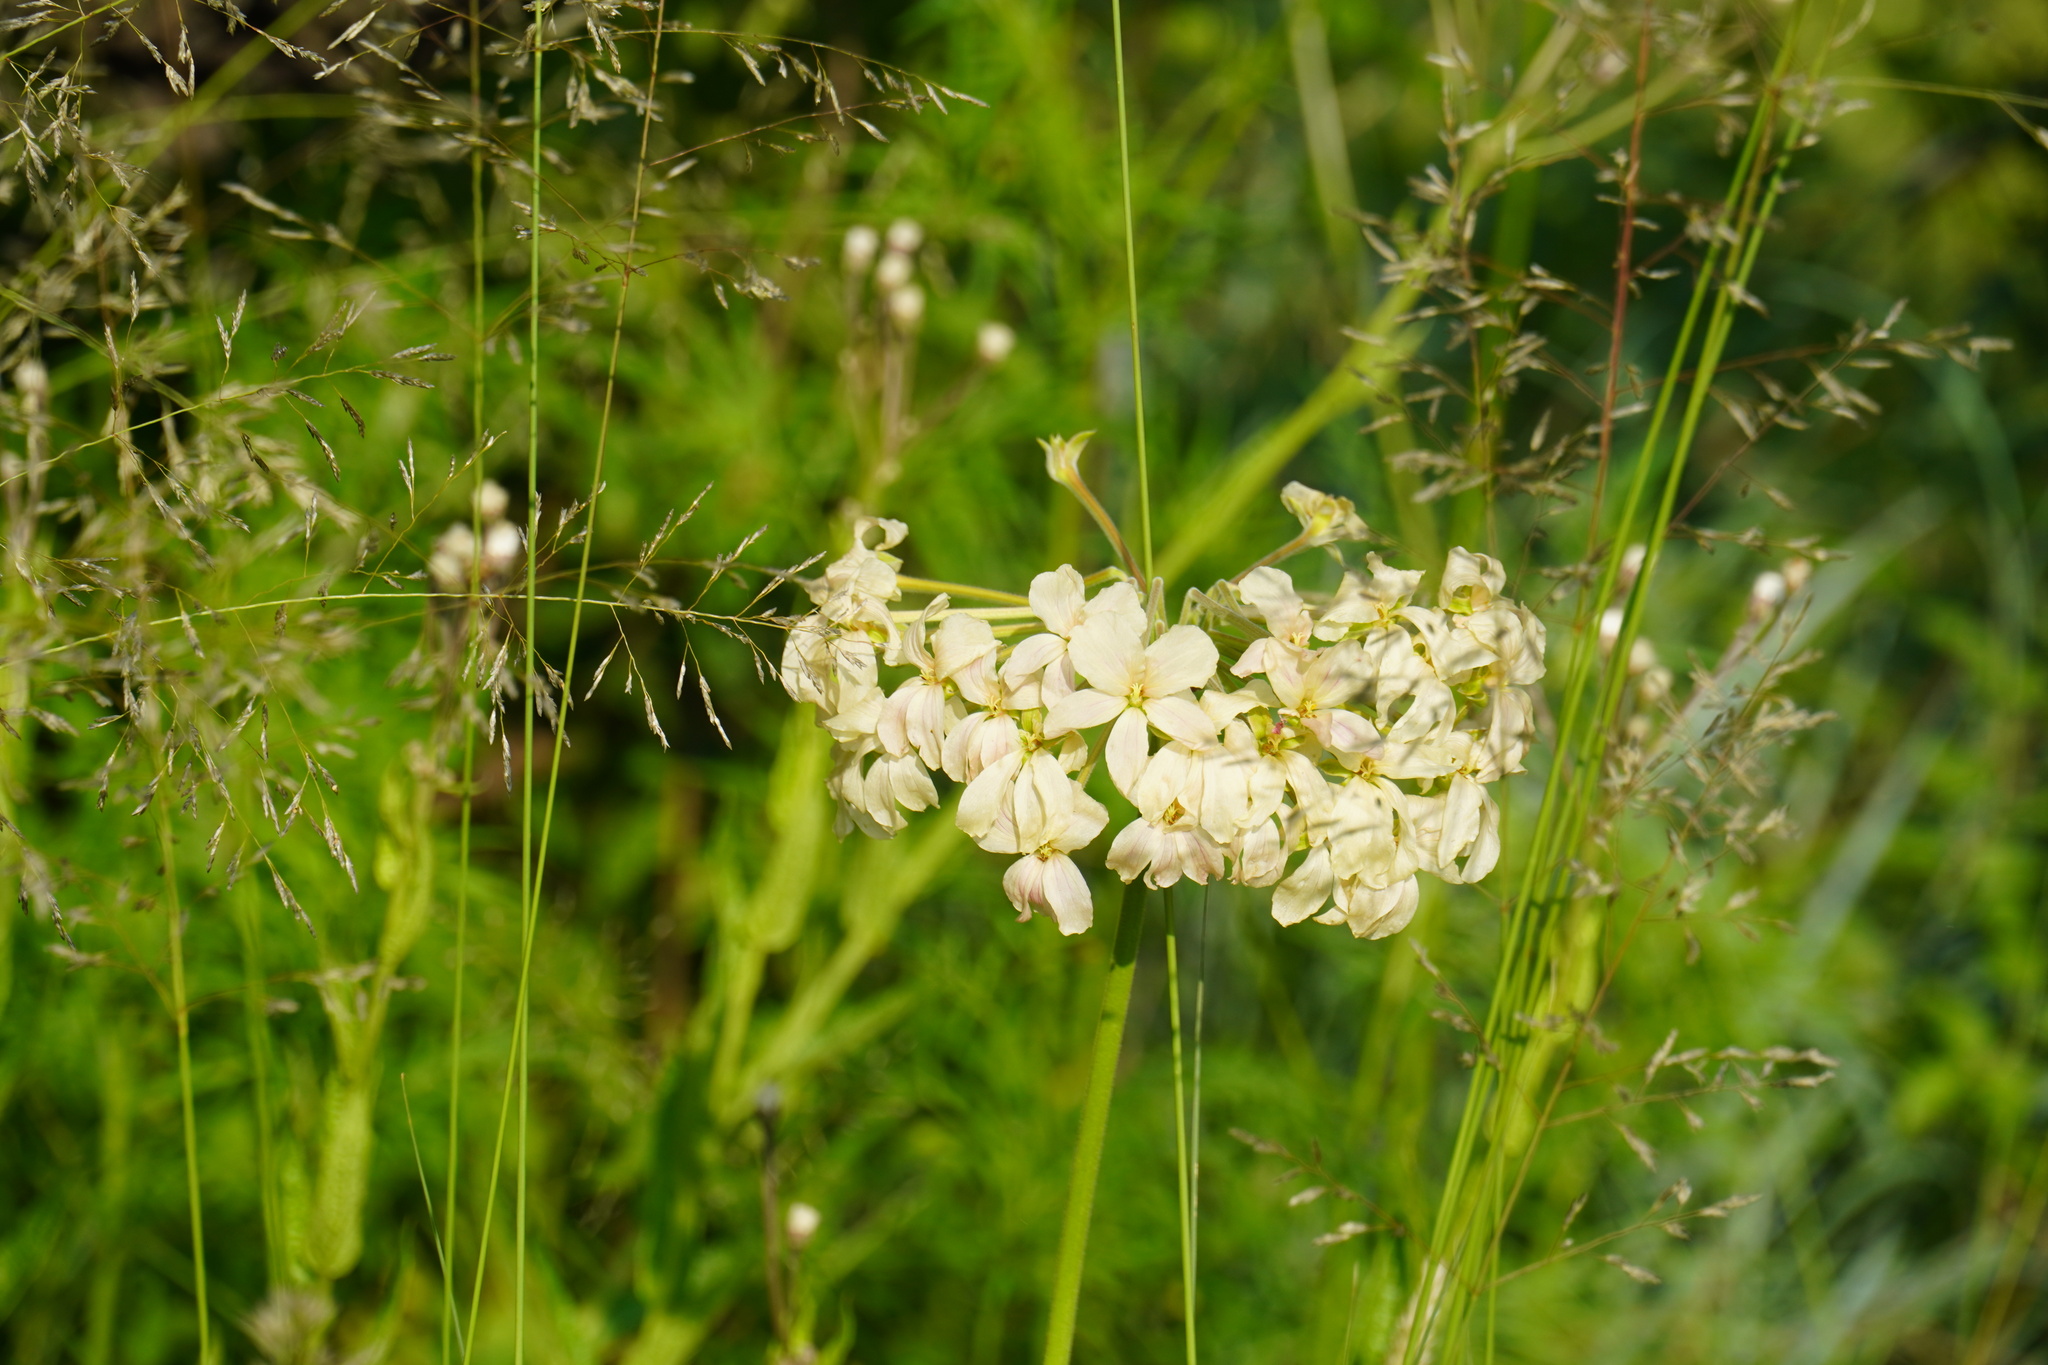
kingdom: Plantae
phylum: Tracheophyta
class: Magnoliopsida
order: Geraniales
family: Geraniaceae
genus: Pelargonium
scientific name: Pelargonium luridum
